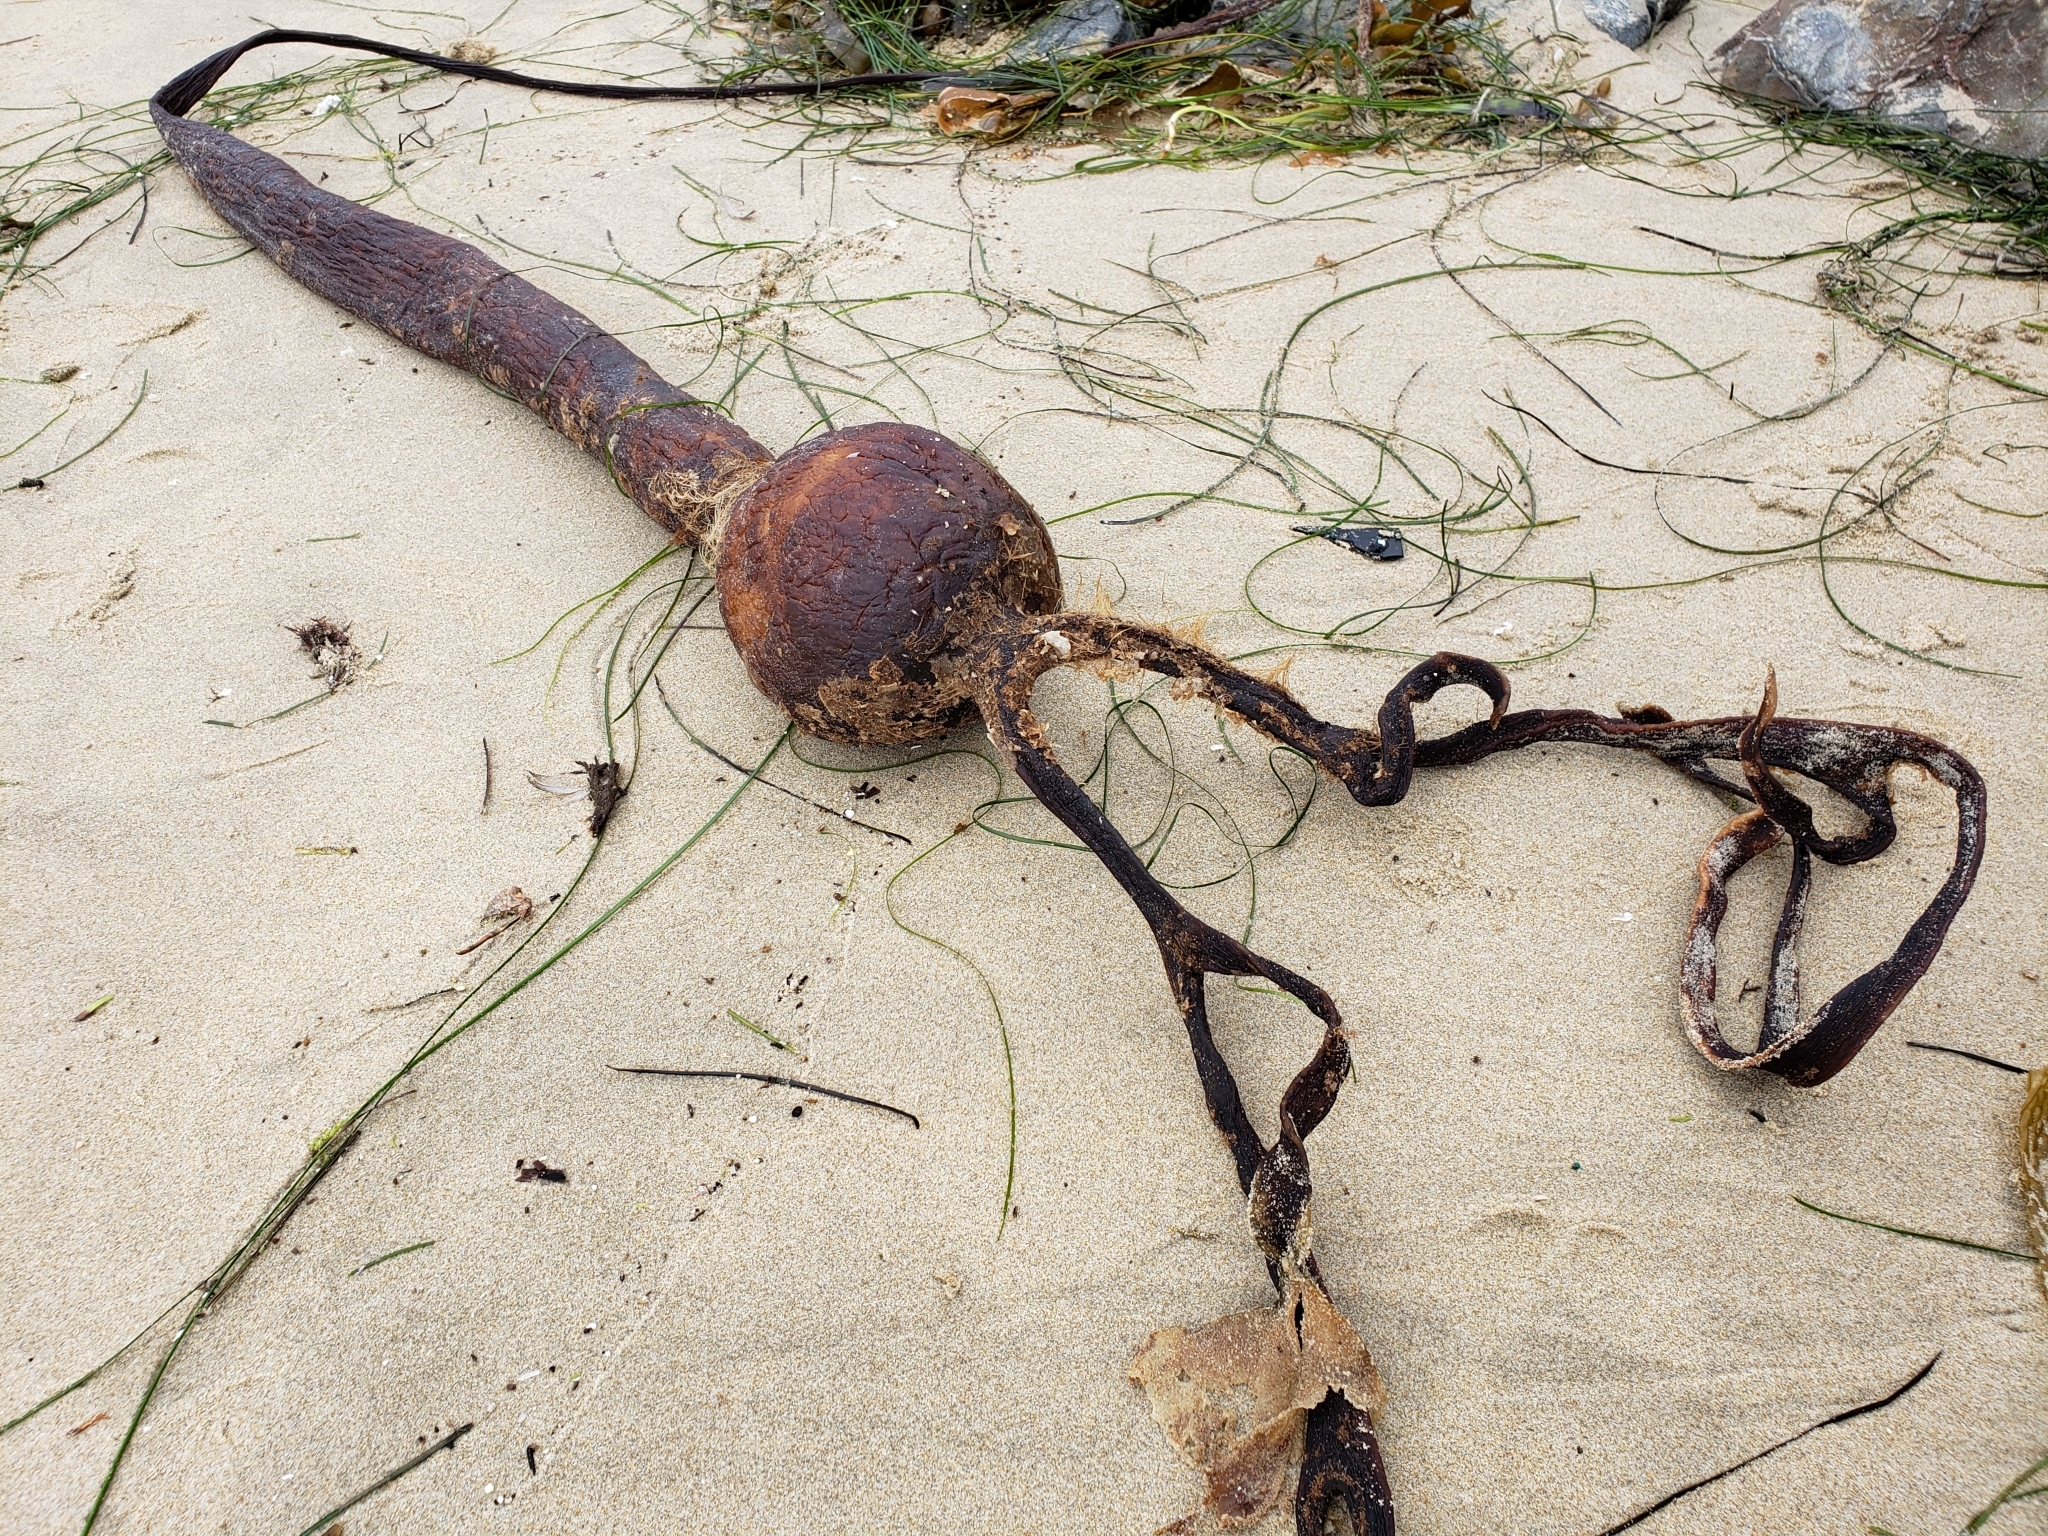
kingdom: Chromista
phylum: Ochrophyta
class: Phaeophyceae
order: Laminariales
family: Laminariaceae
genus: Pelagophycus
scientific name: Pelagophycus porra
